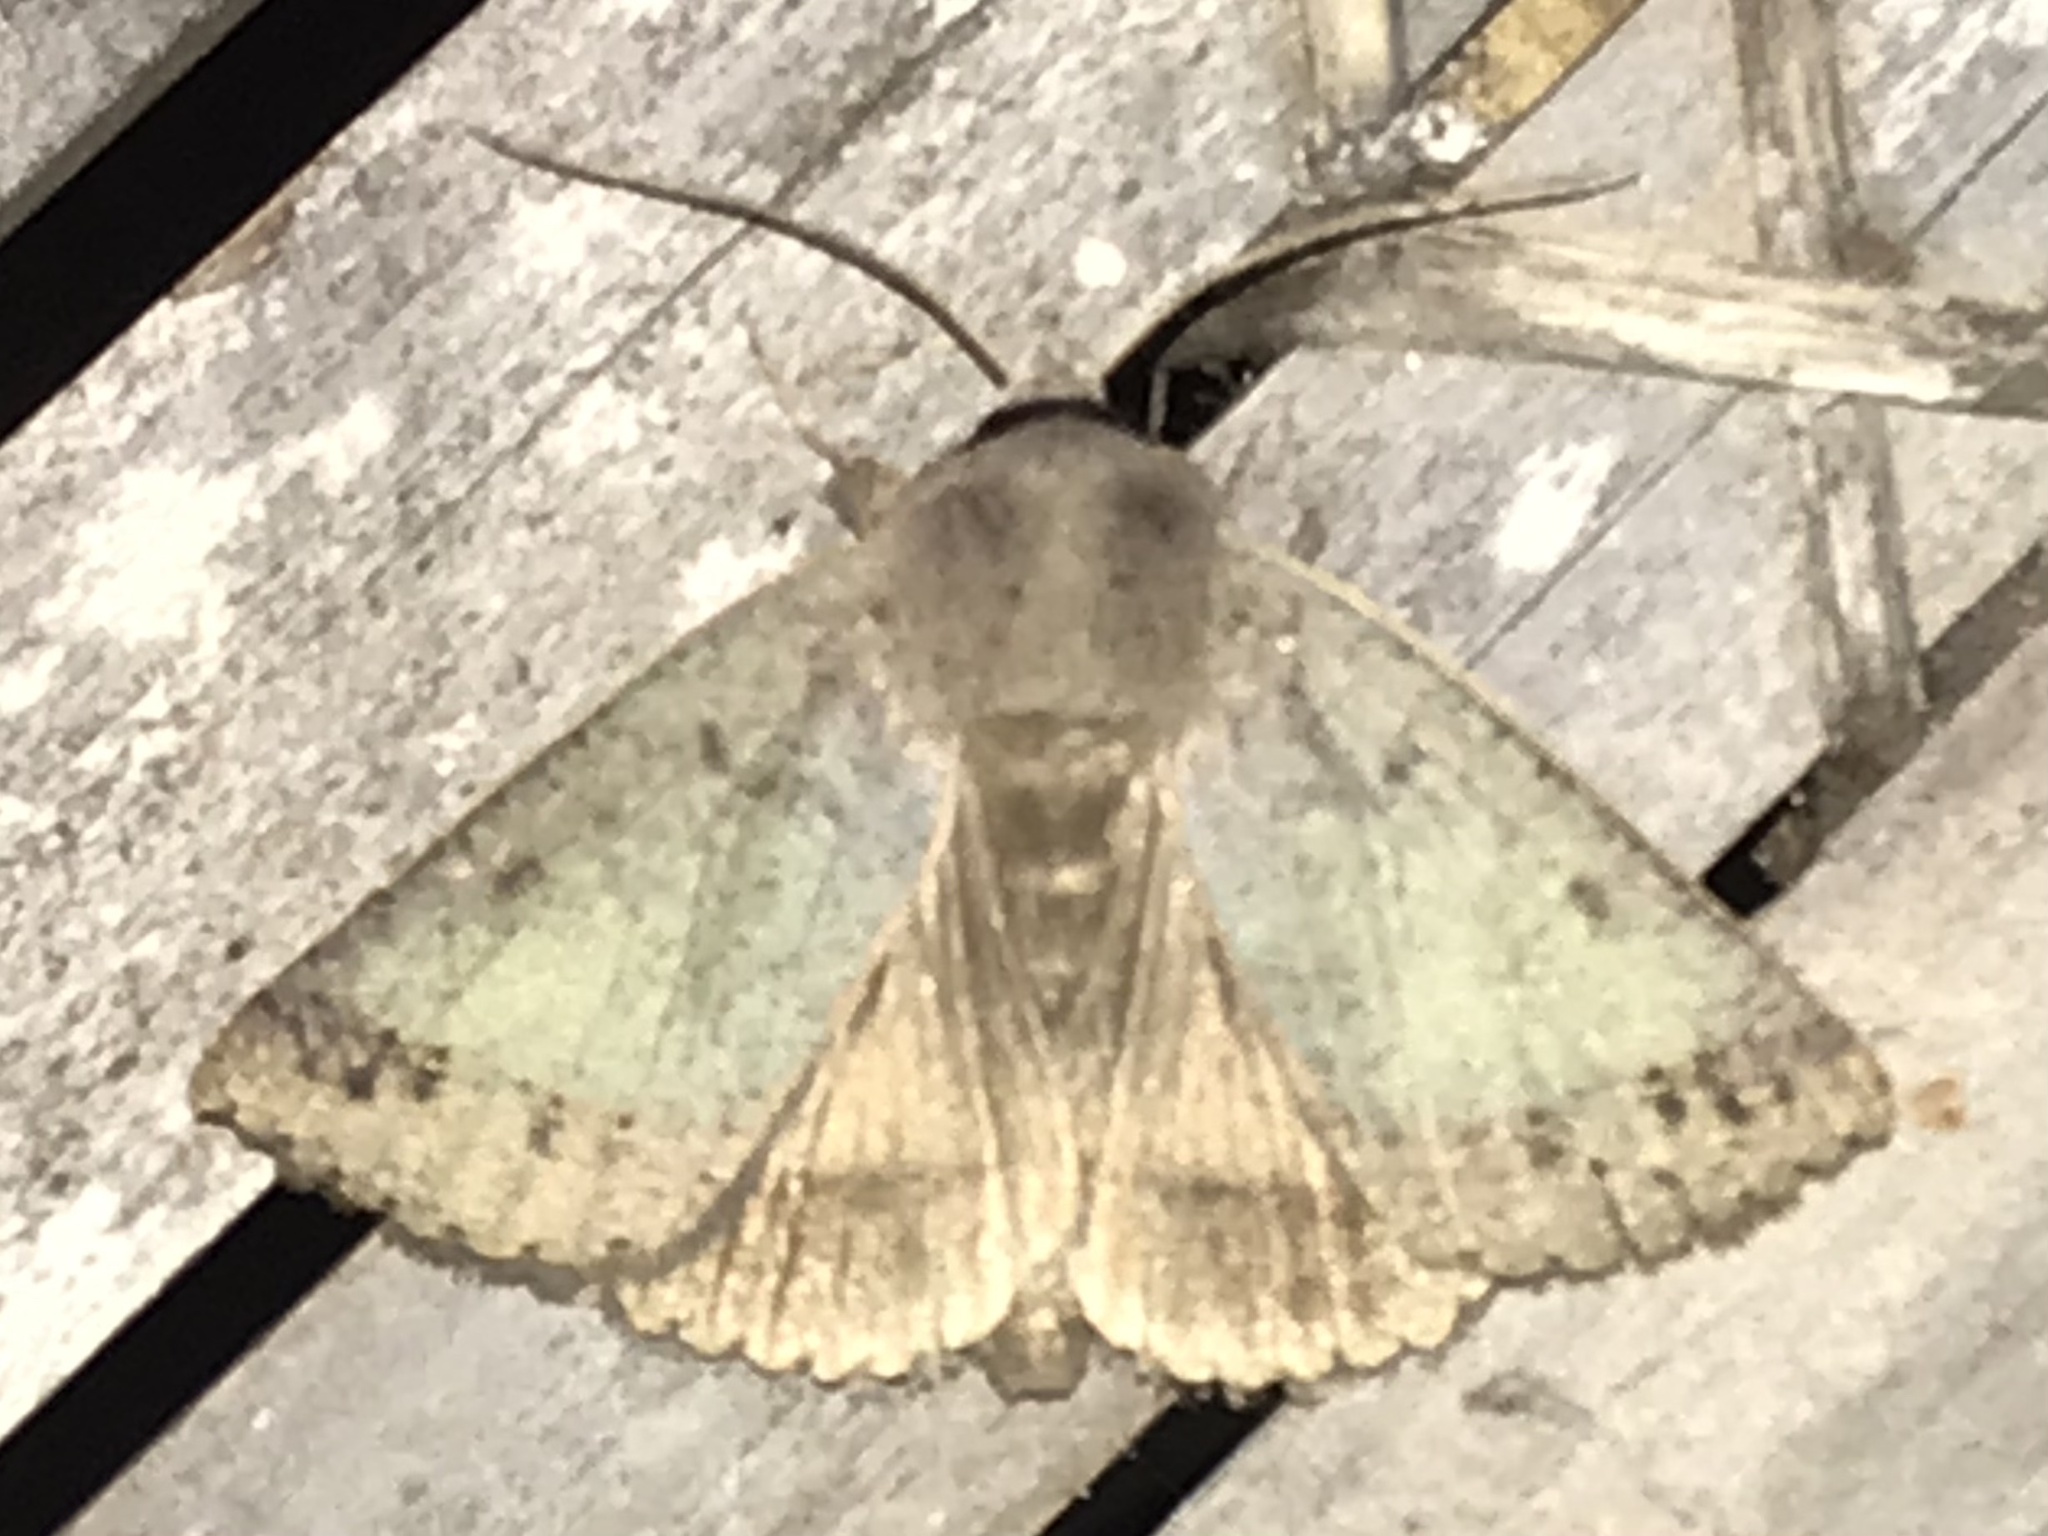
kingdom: Animalia
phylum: Arthropoda
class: Insecta
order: Lepidoptera
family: Erebidae
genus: Pantydia
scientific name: Pantydia sparsa
